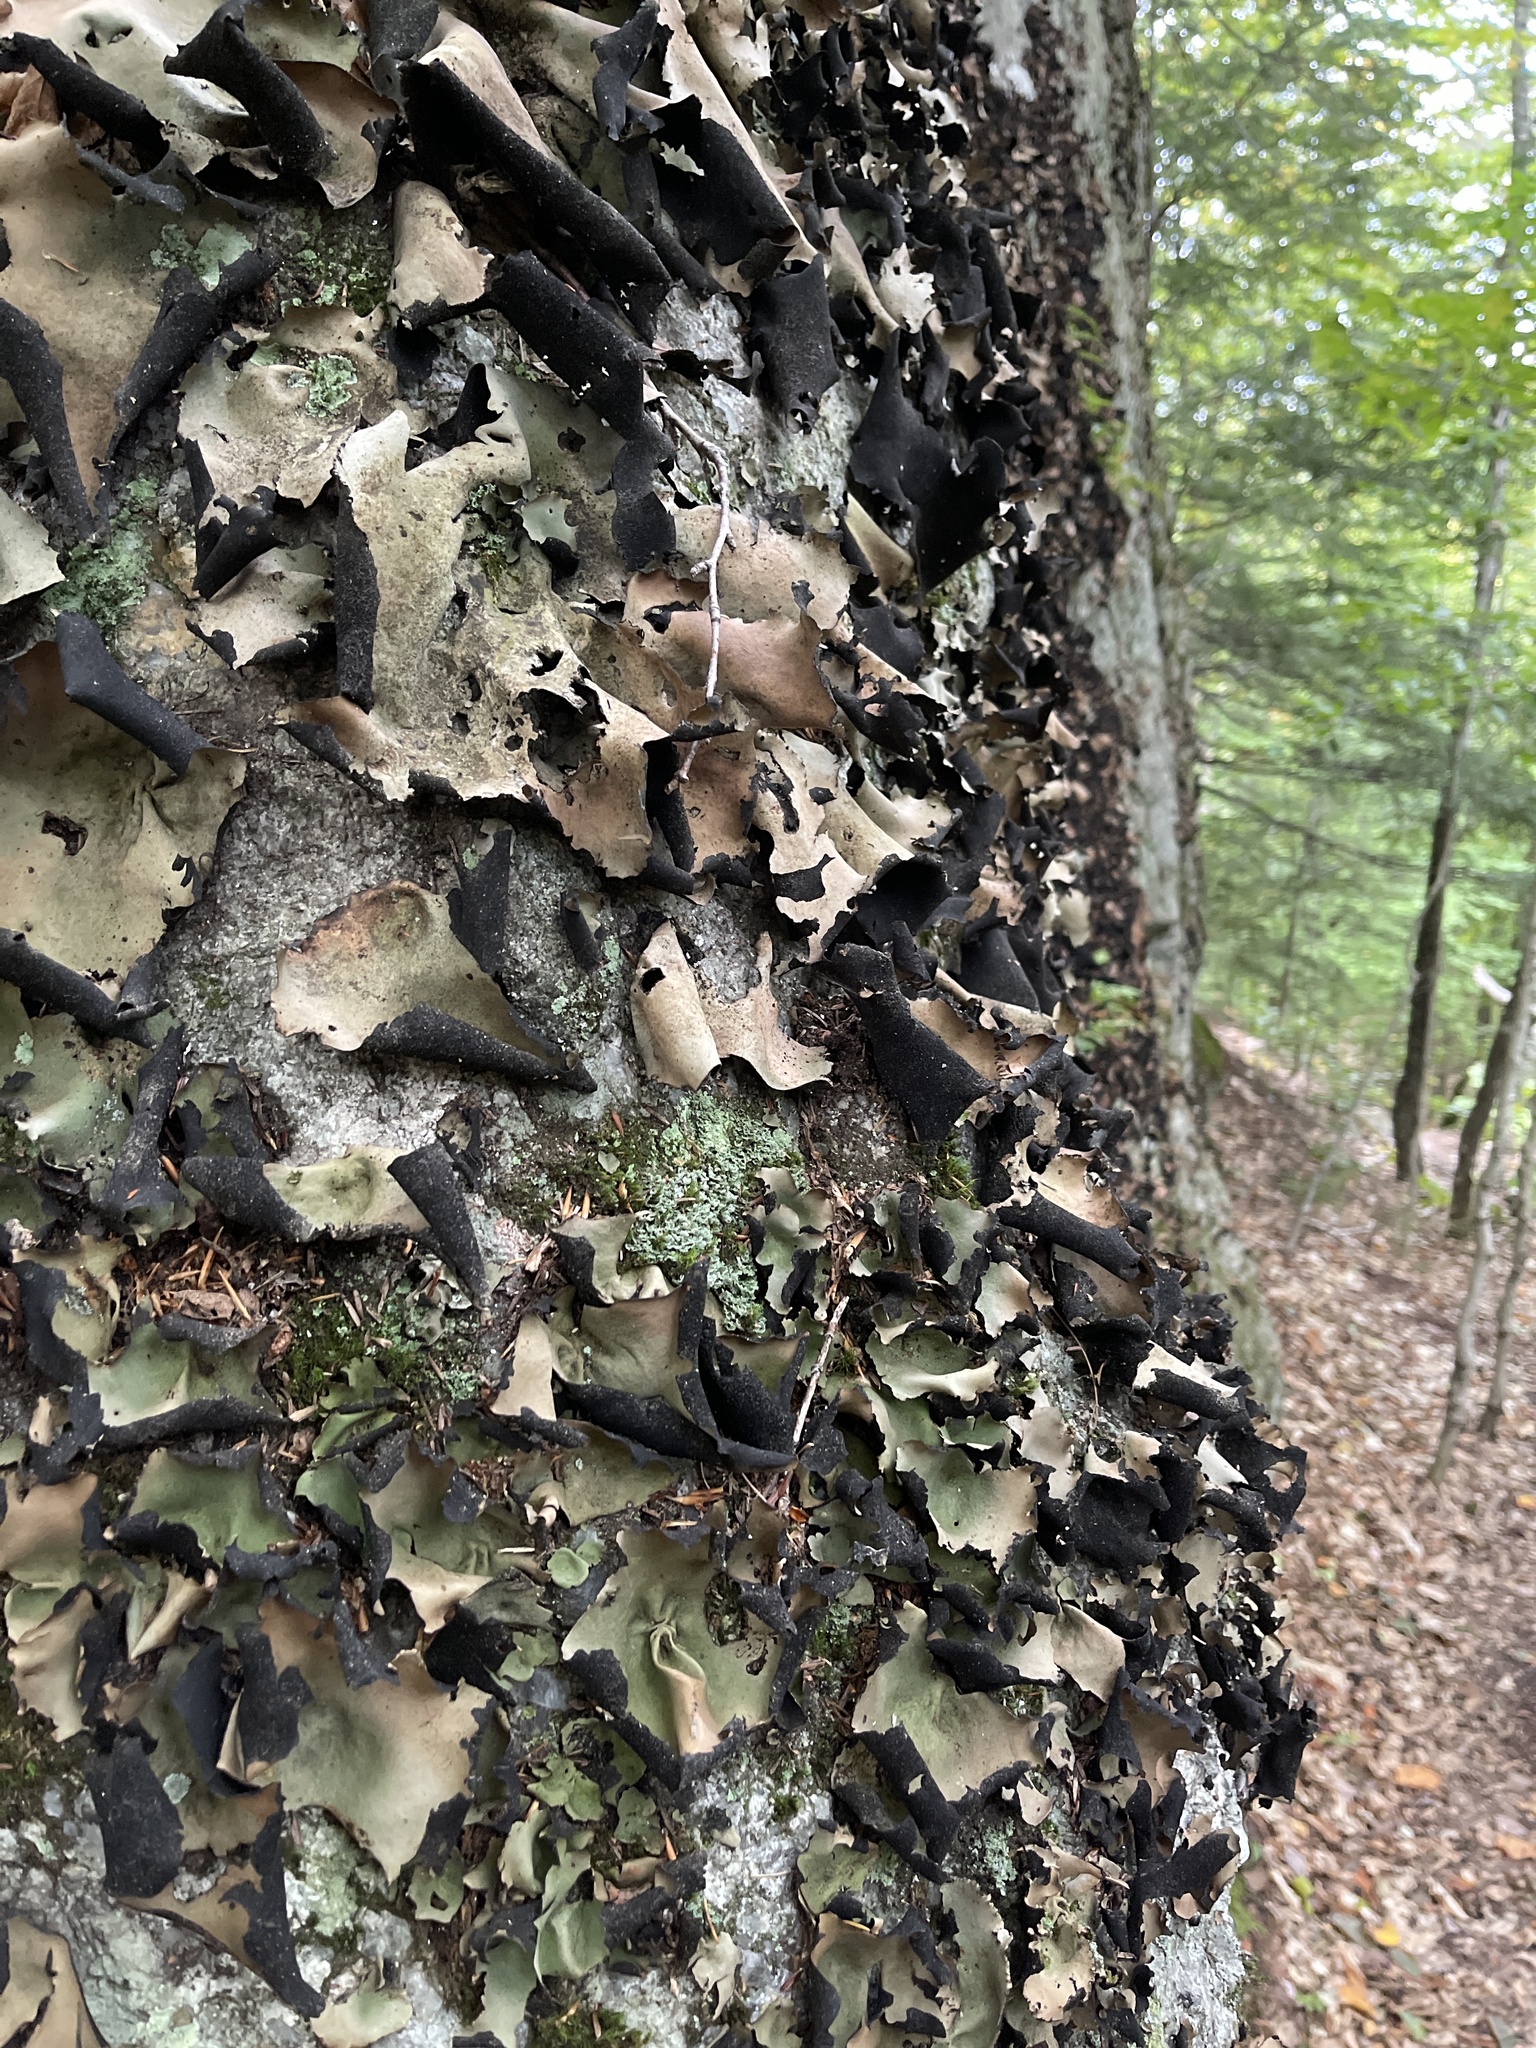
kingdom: Fungi
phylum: Ascomycota
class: Lecanoromycetes
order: Umbilicariales
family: Umbilicariaceae
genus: Umbilicaria
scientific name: Umbilicaria mammulata
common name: Smooth rock tripe
